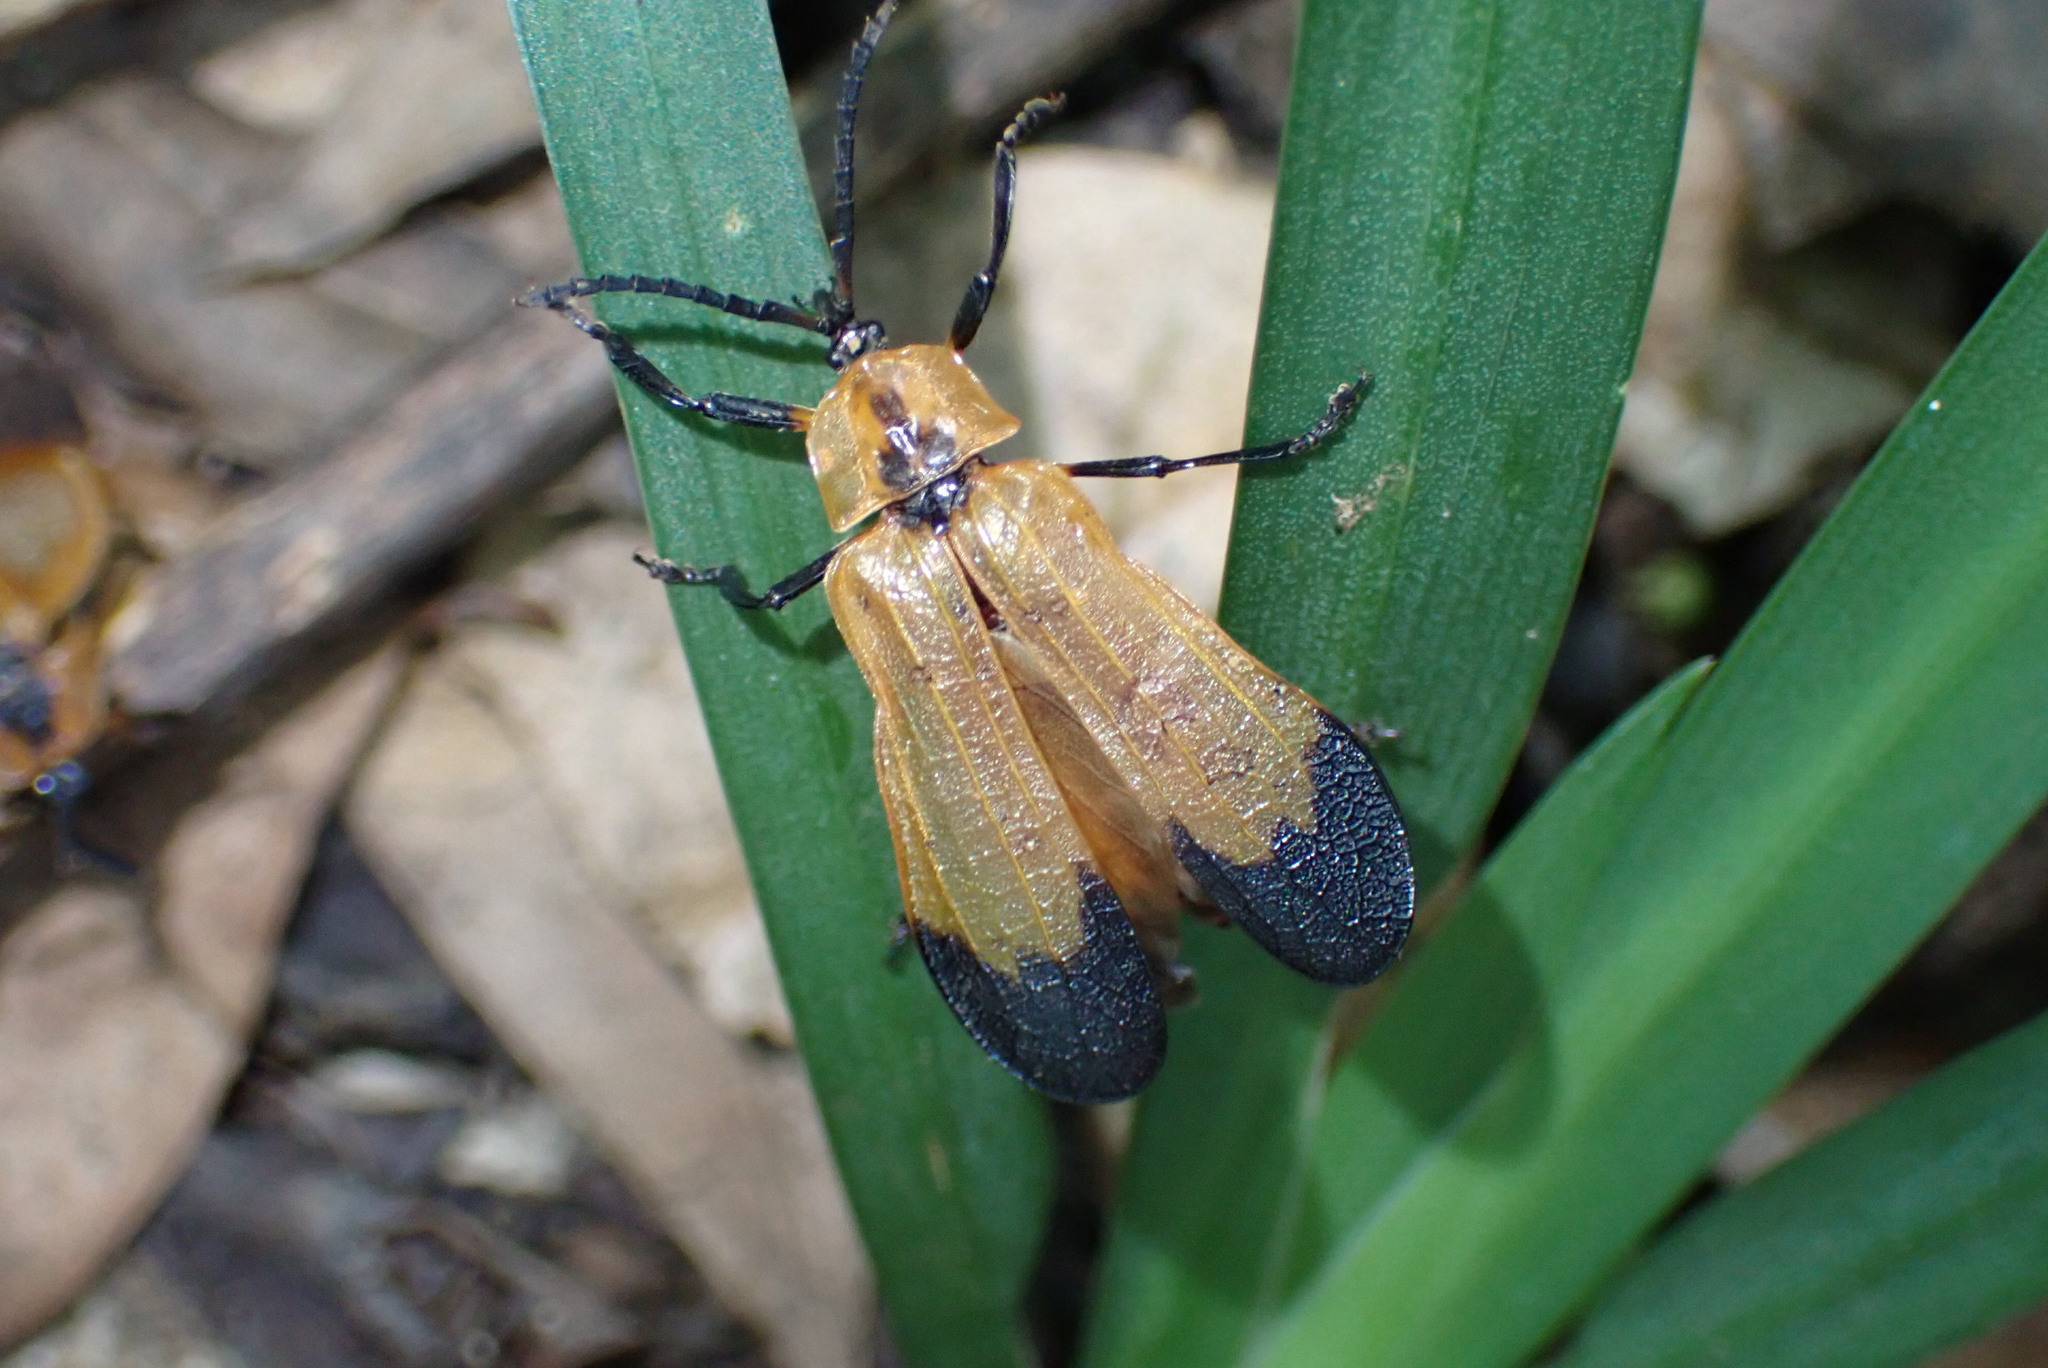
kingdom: Animalia
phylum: Arthropoda
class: Insecta
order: Coleoptera
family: Lycidae
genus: Lycus
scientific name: Lycus
